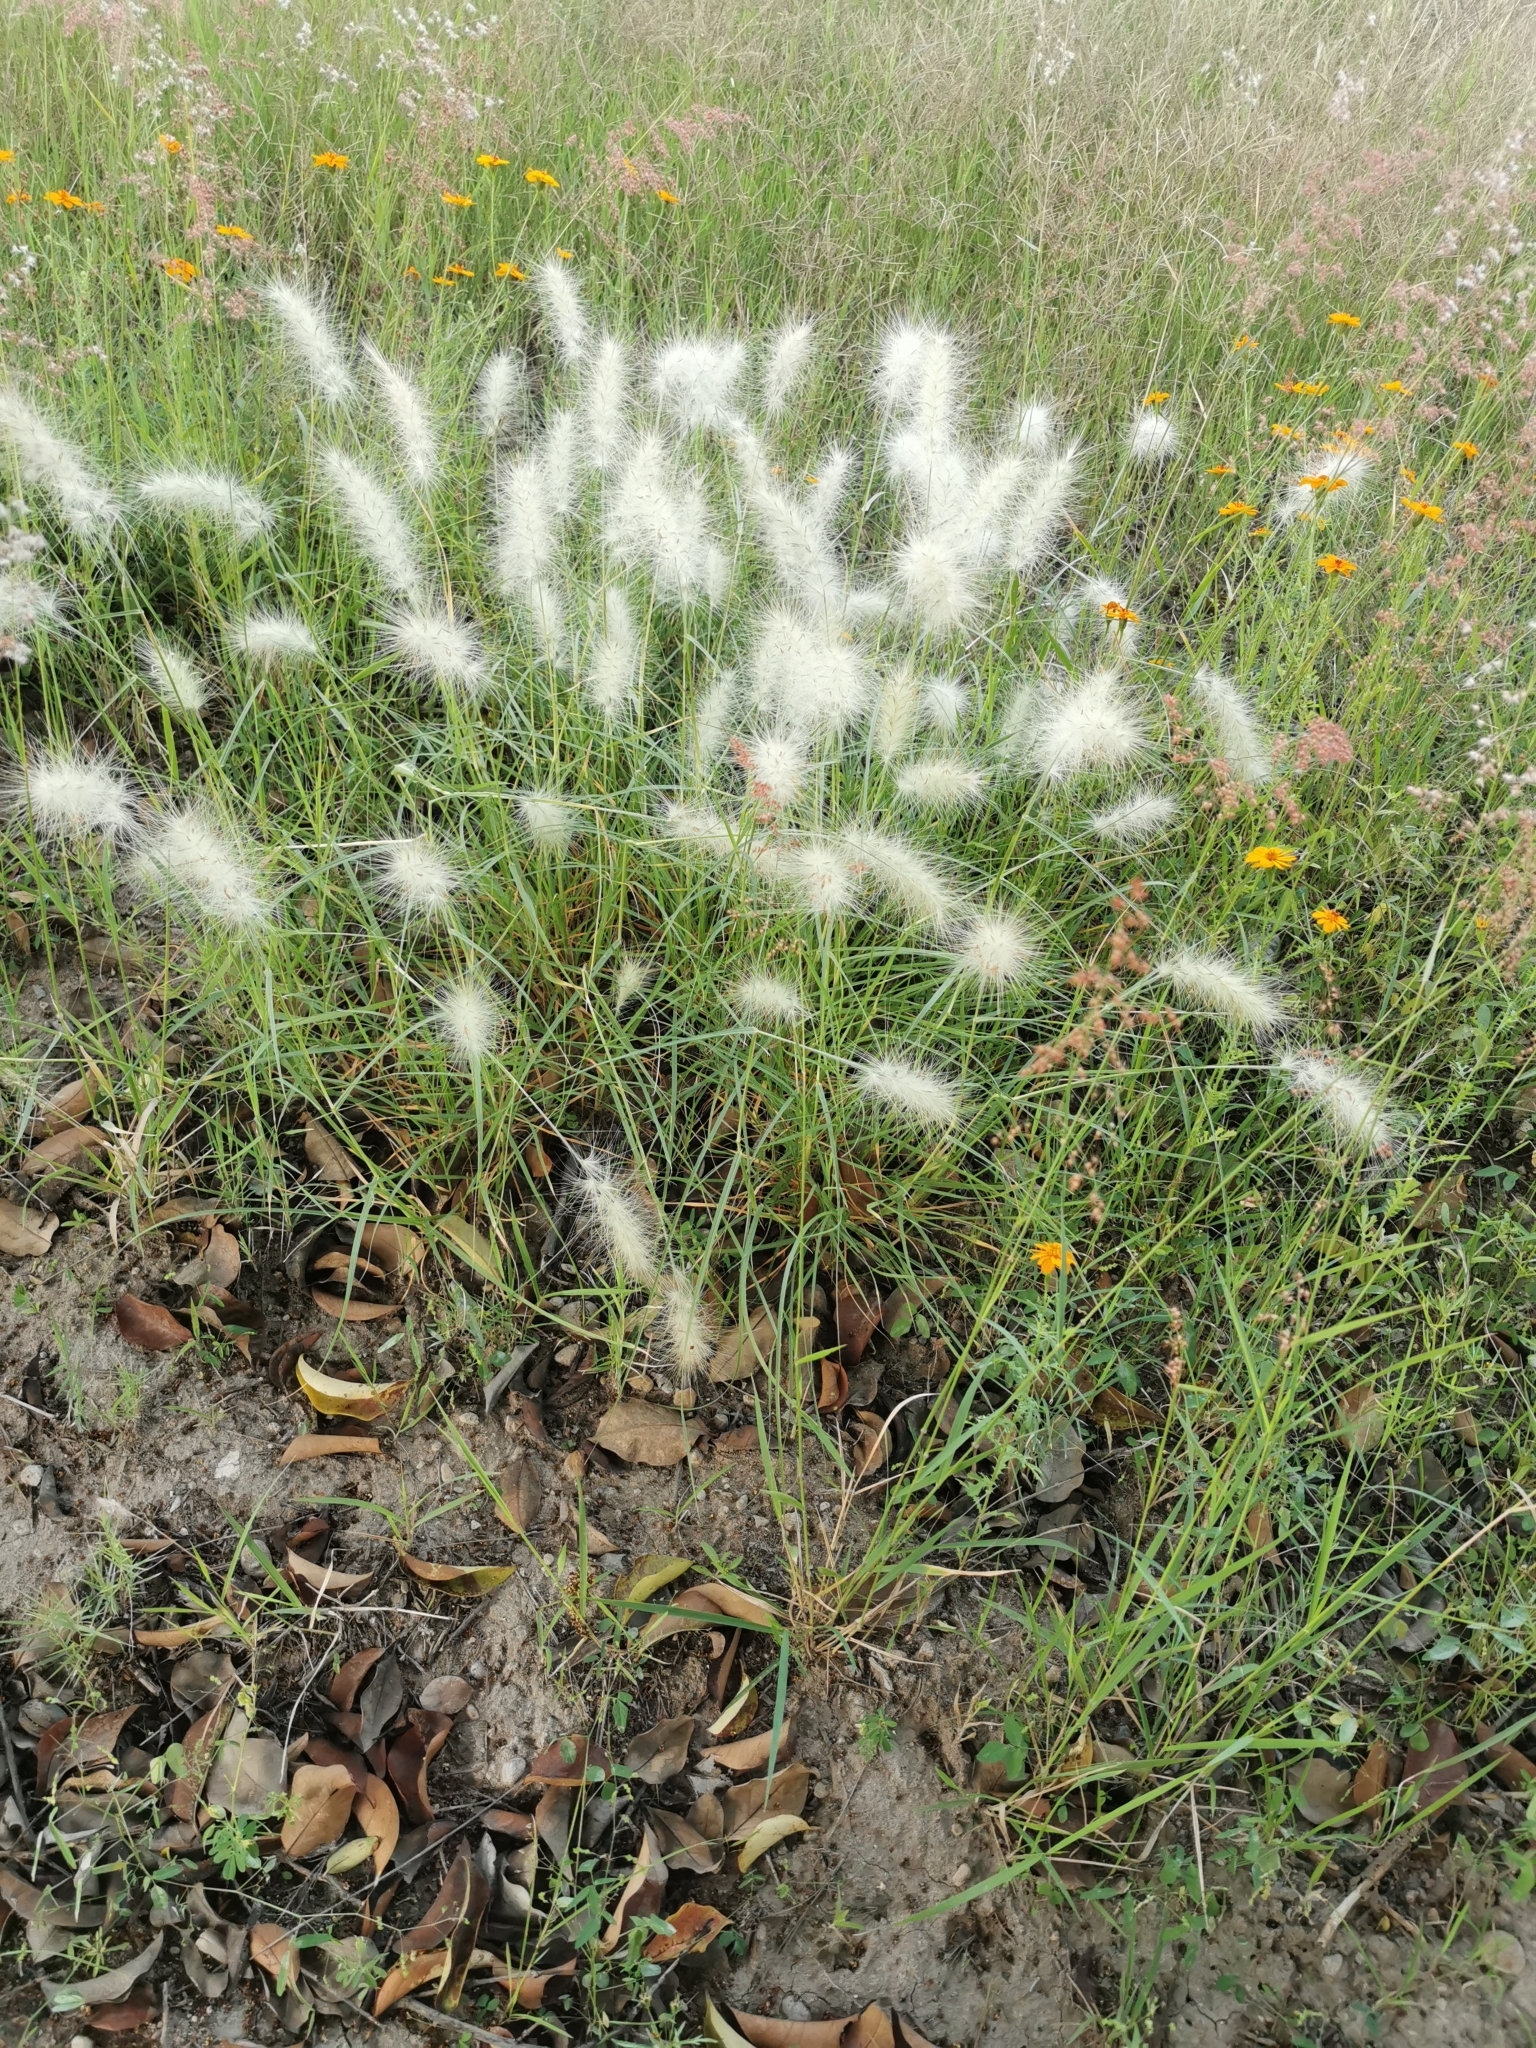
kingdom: Plantae
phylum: Tracheophyta
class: Liliopsida
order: Poales
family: Poaceae
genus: Cenchrus
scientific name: Cenchrus longisetus
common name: Feathertop
